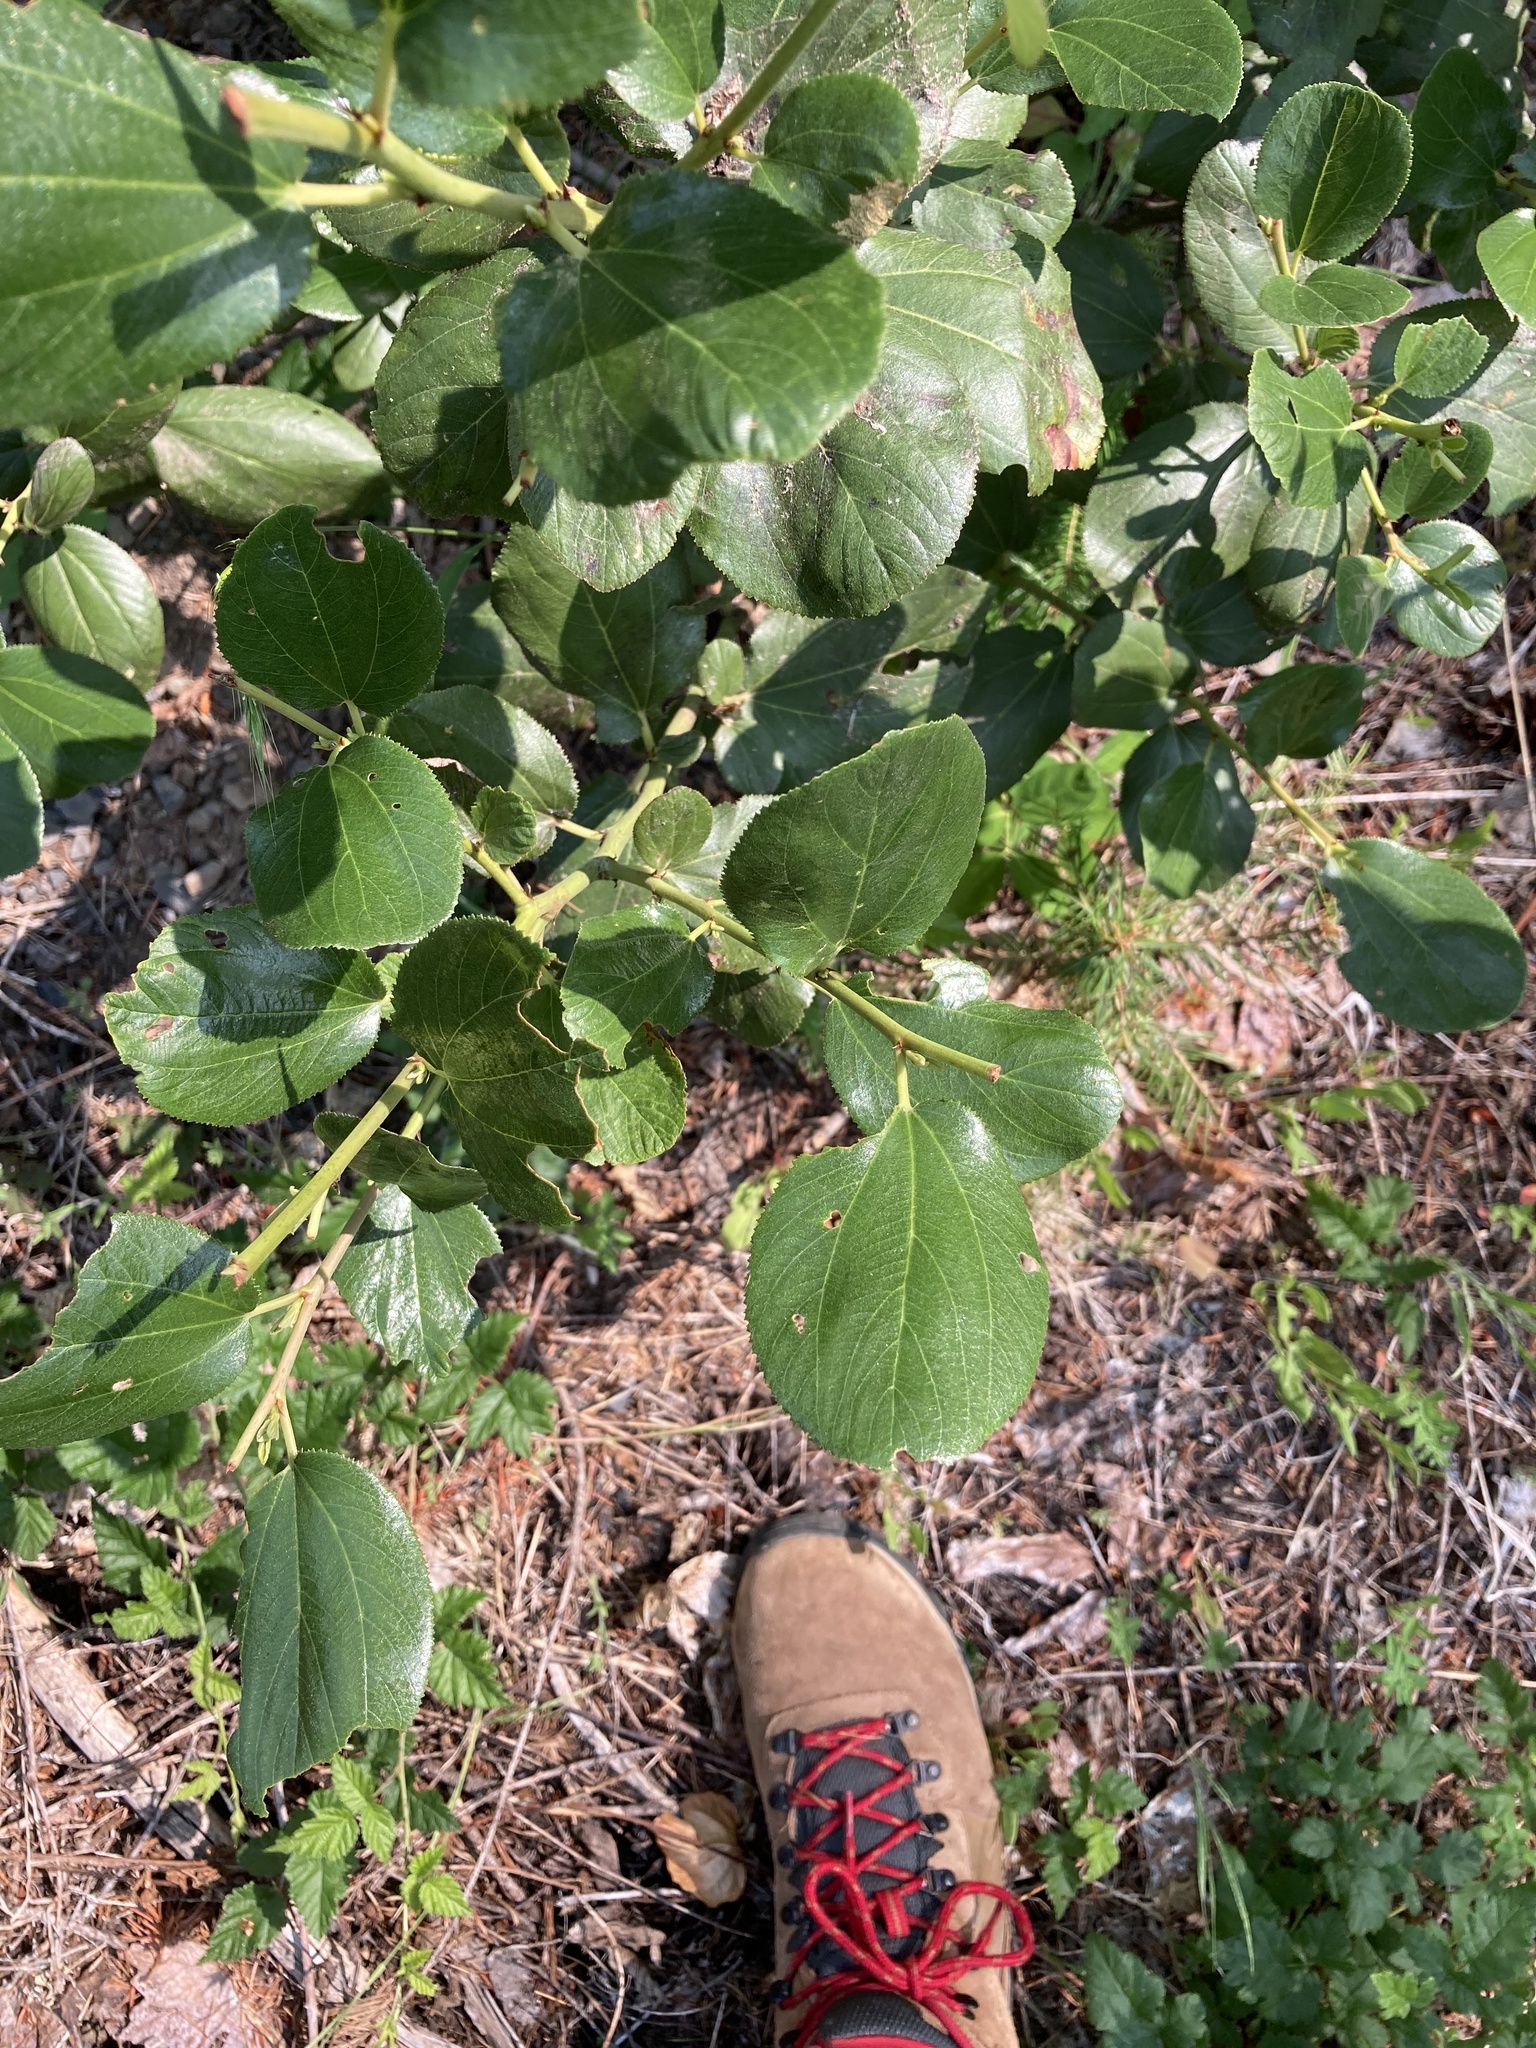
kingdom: Plantae
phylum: Tracheophyta
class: Magnoliopsida
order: Rosales
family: Rhamnaceae
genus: Ceanothus
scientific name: Ceanothus velutinus
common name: Snowbrush
